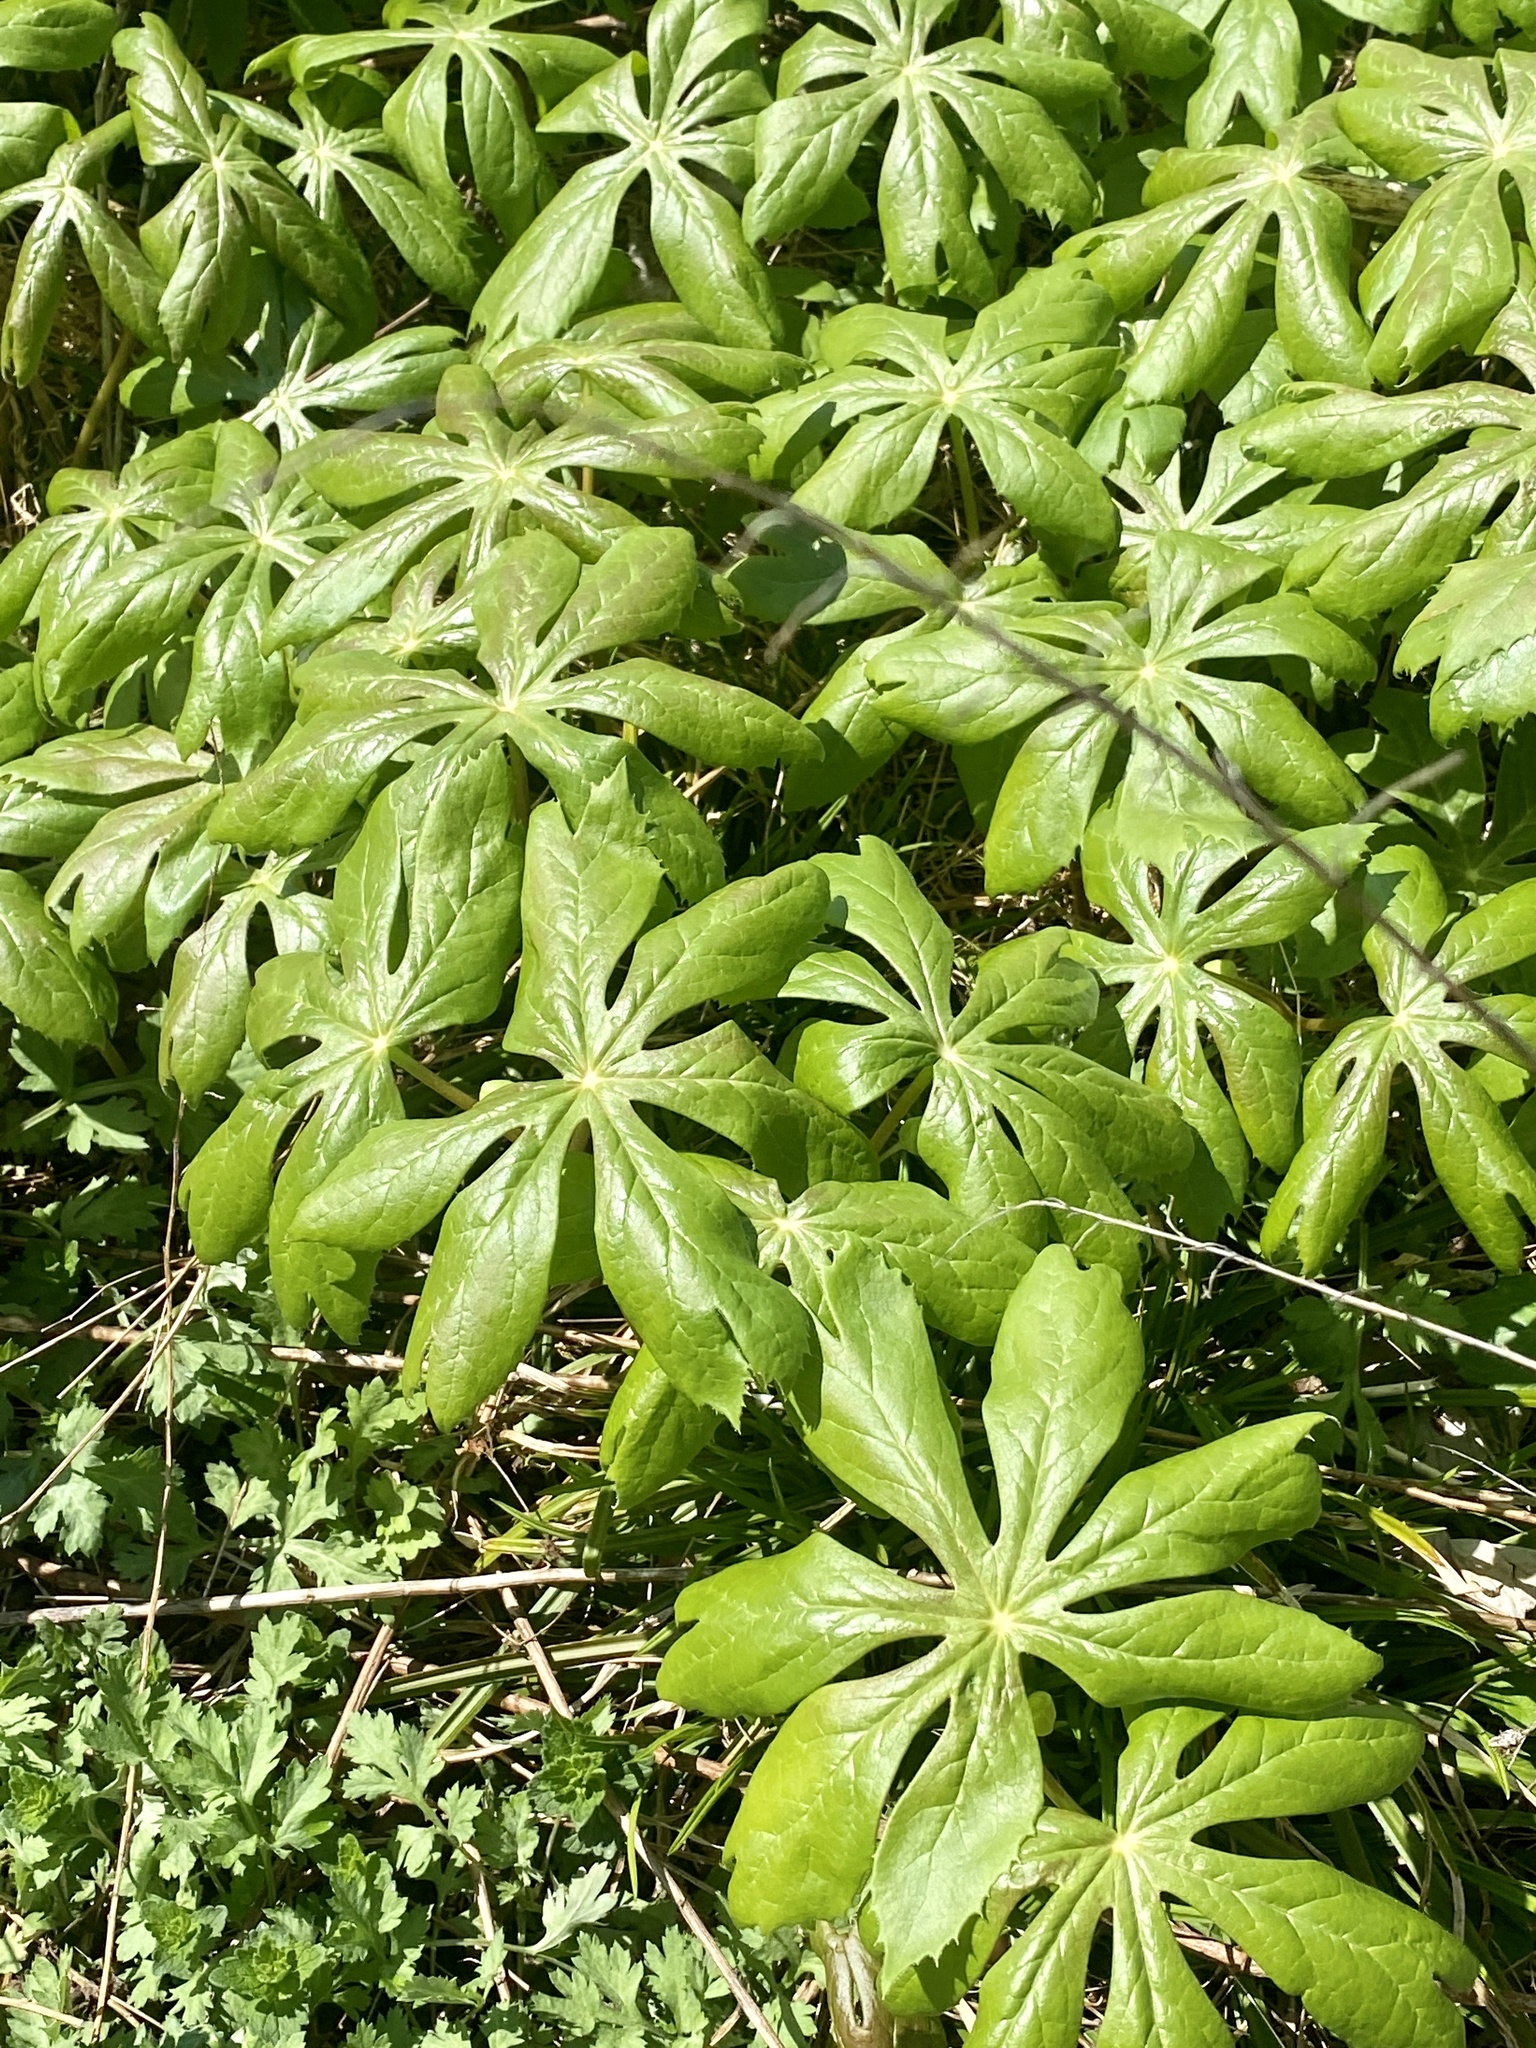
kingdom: Plantae
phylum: Tracheophyta
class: Magnoliopsida
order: Ranunculales
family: Berberidaceae
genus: Podophyllum
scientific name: Podophyllum peltatum
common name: Wild mandrake
